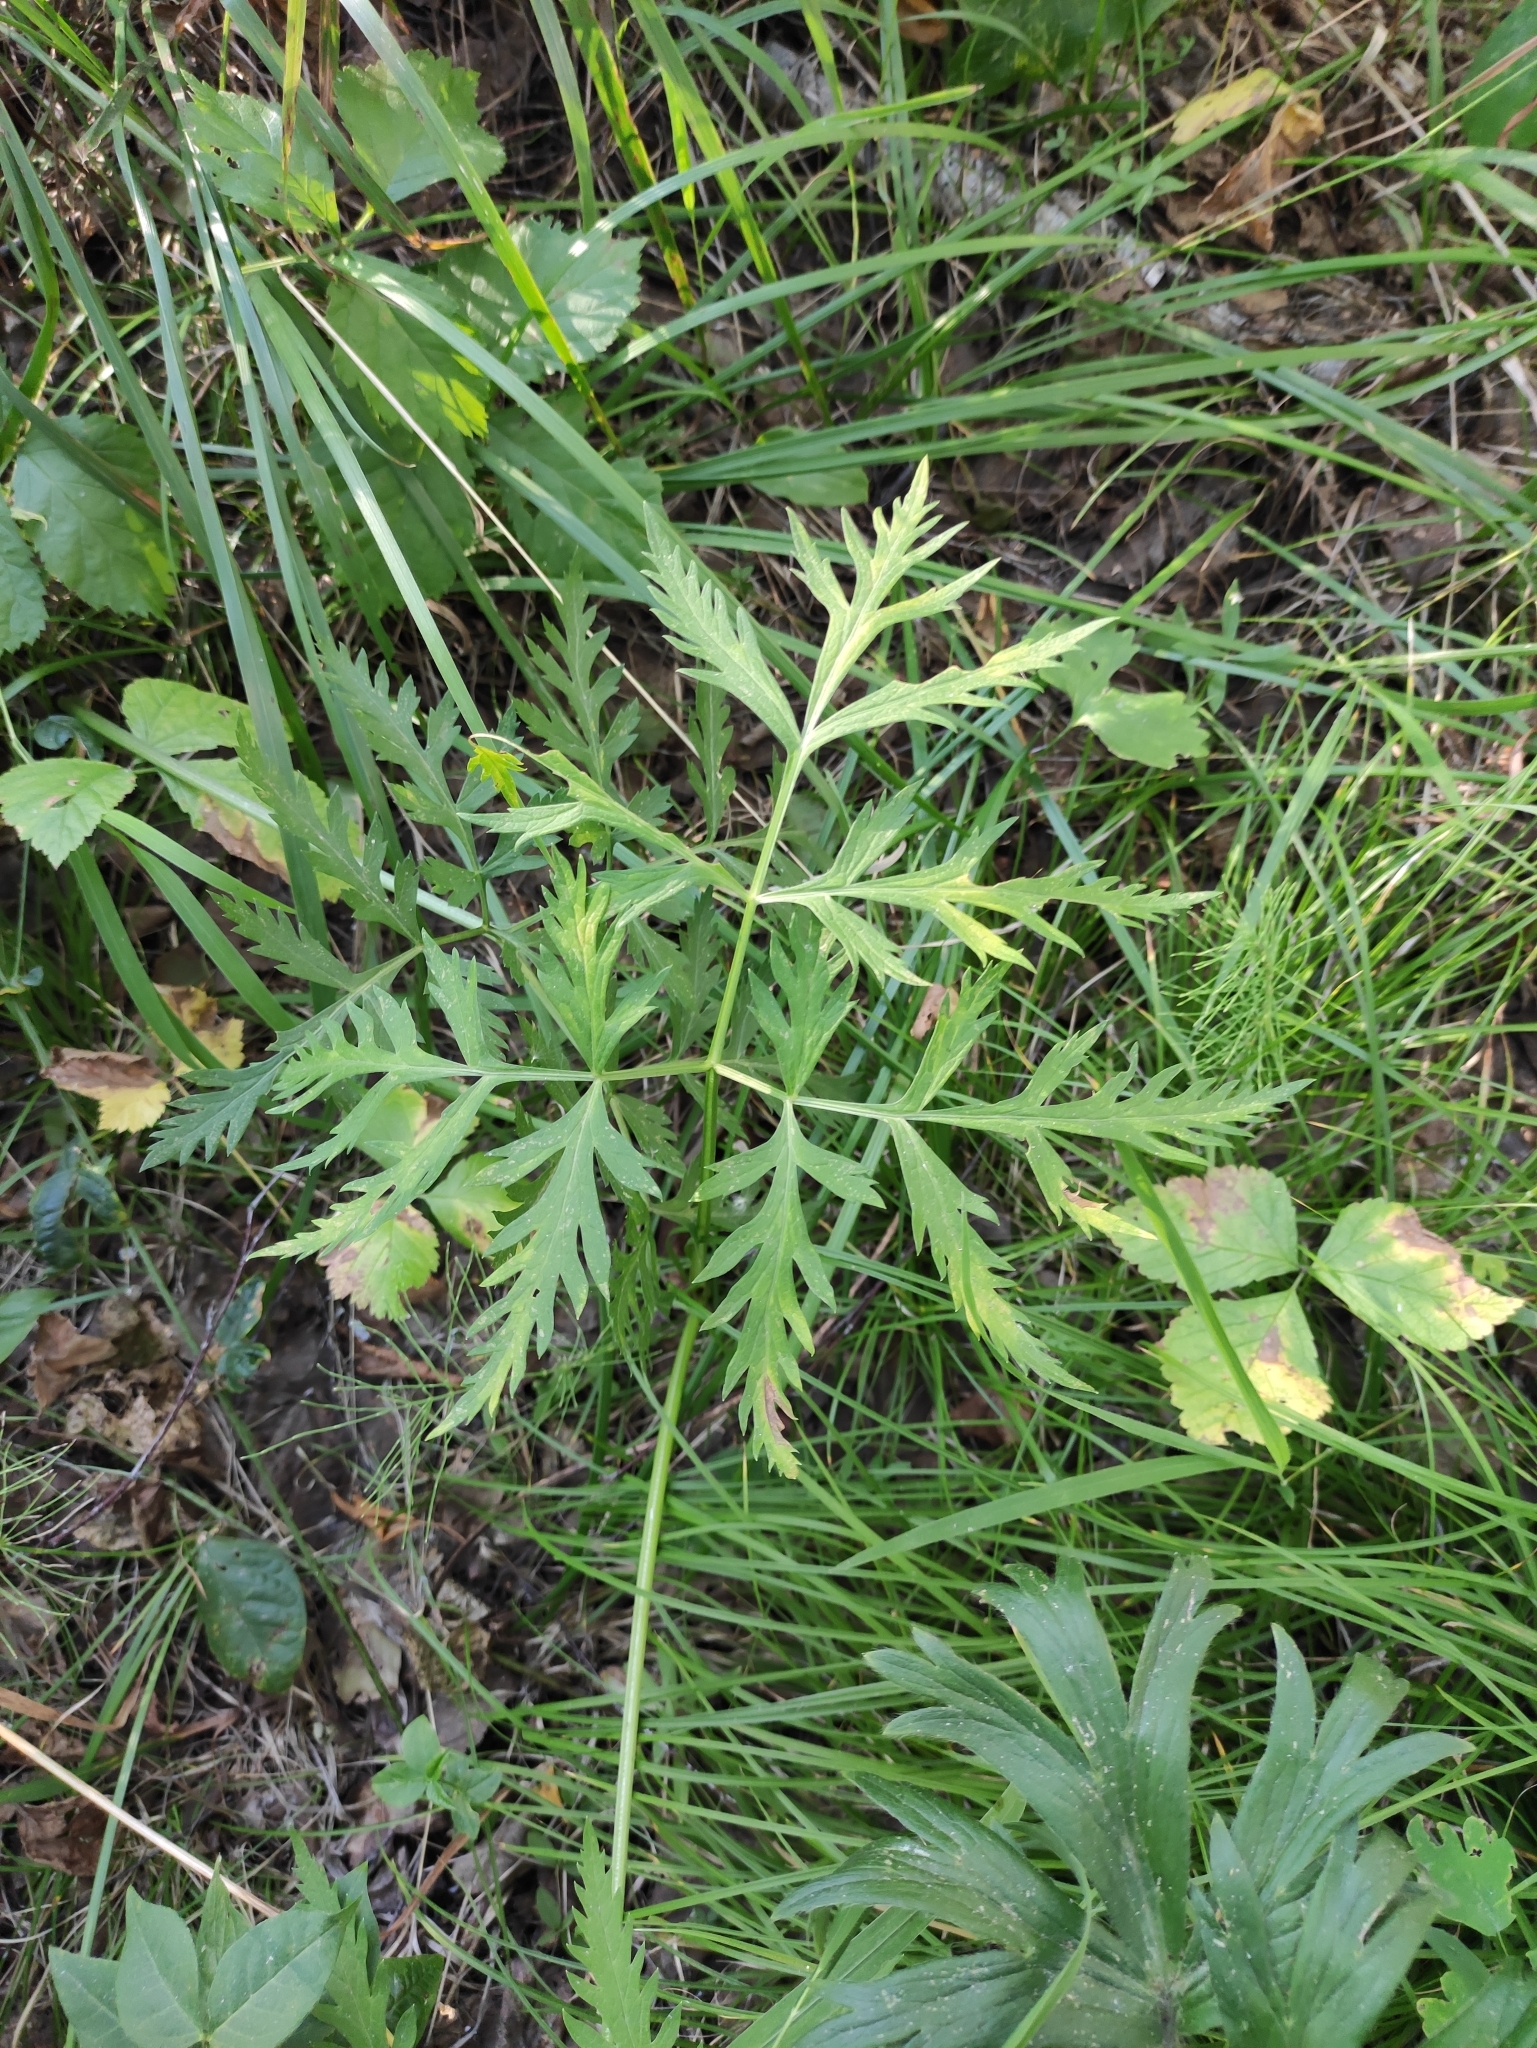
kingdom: Plantae
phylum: Tracheophyta
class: Magnoliopsida
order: Apiales
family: Apiaceae
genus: Pleurospermum
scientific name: Pleurospermum uralense
